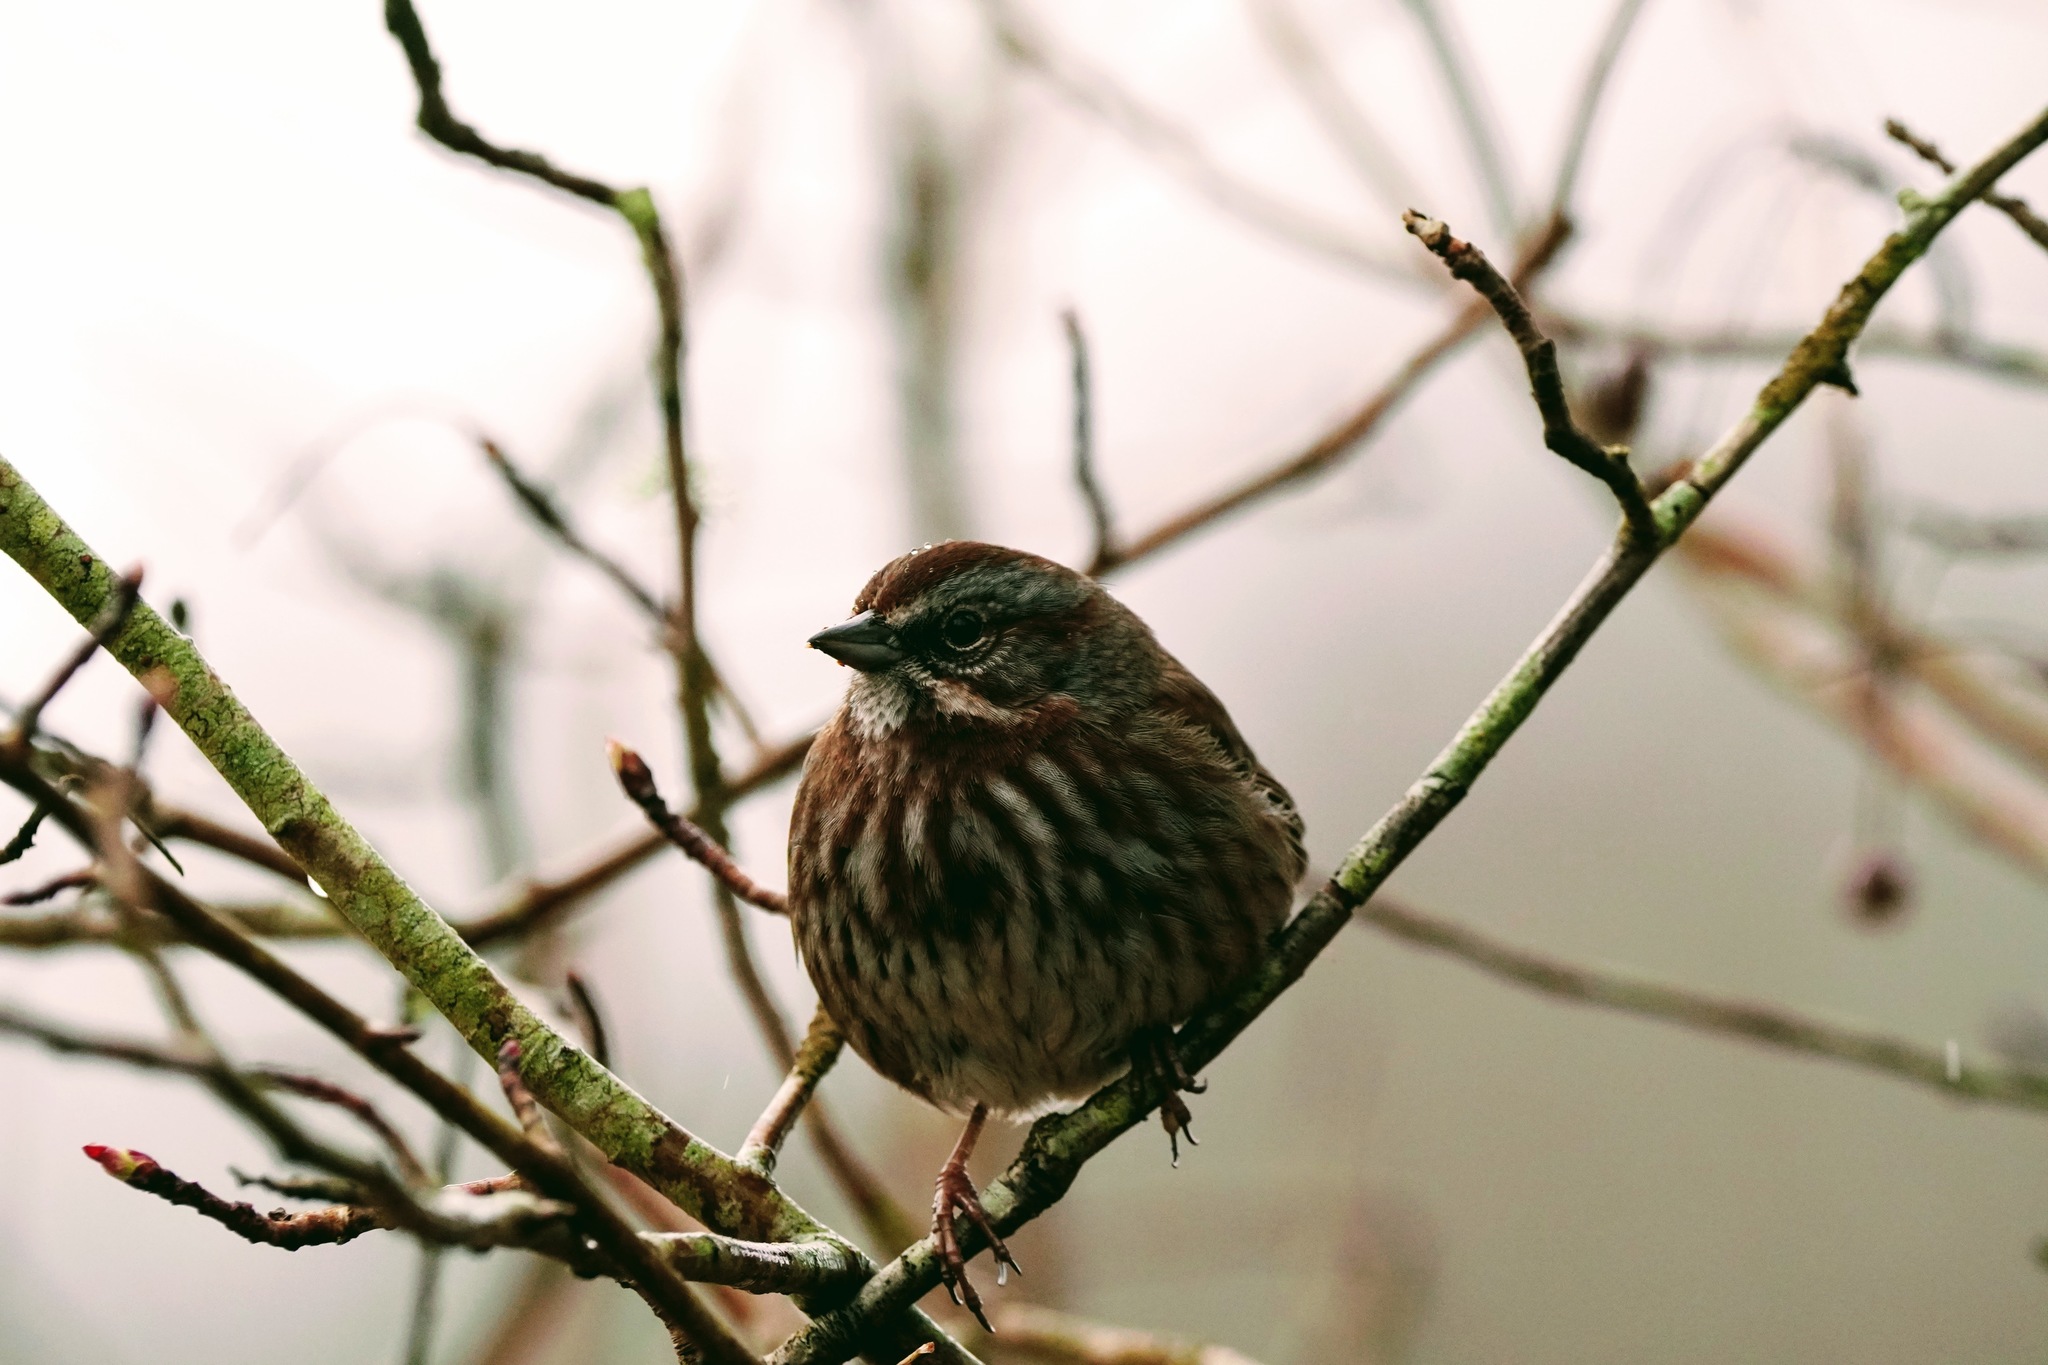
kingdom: Animalia
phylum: Chordata
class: Aves
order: Passeriformes
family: Passerellidae
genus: Melospiza
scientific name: Melospiza melodia
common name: Song sparrow
